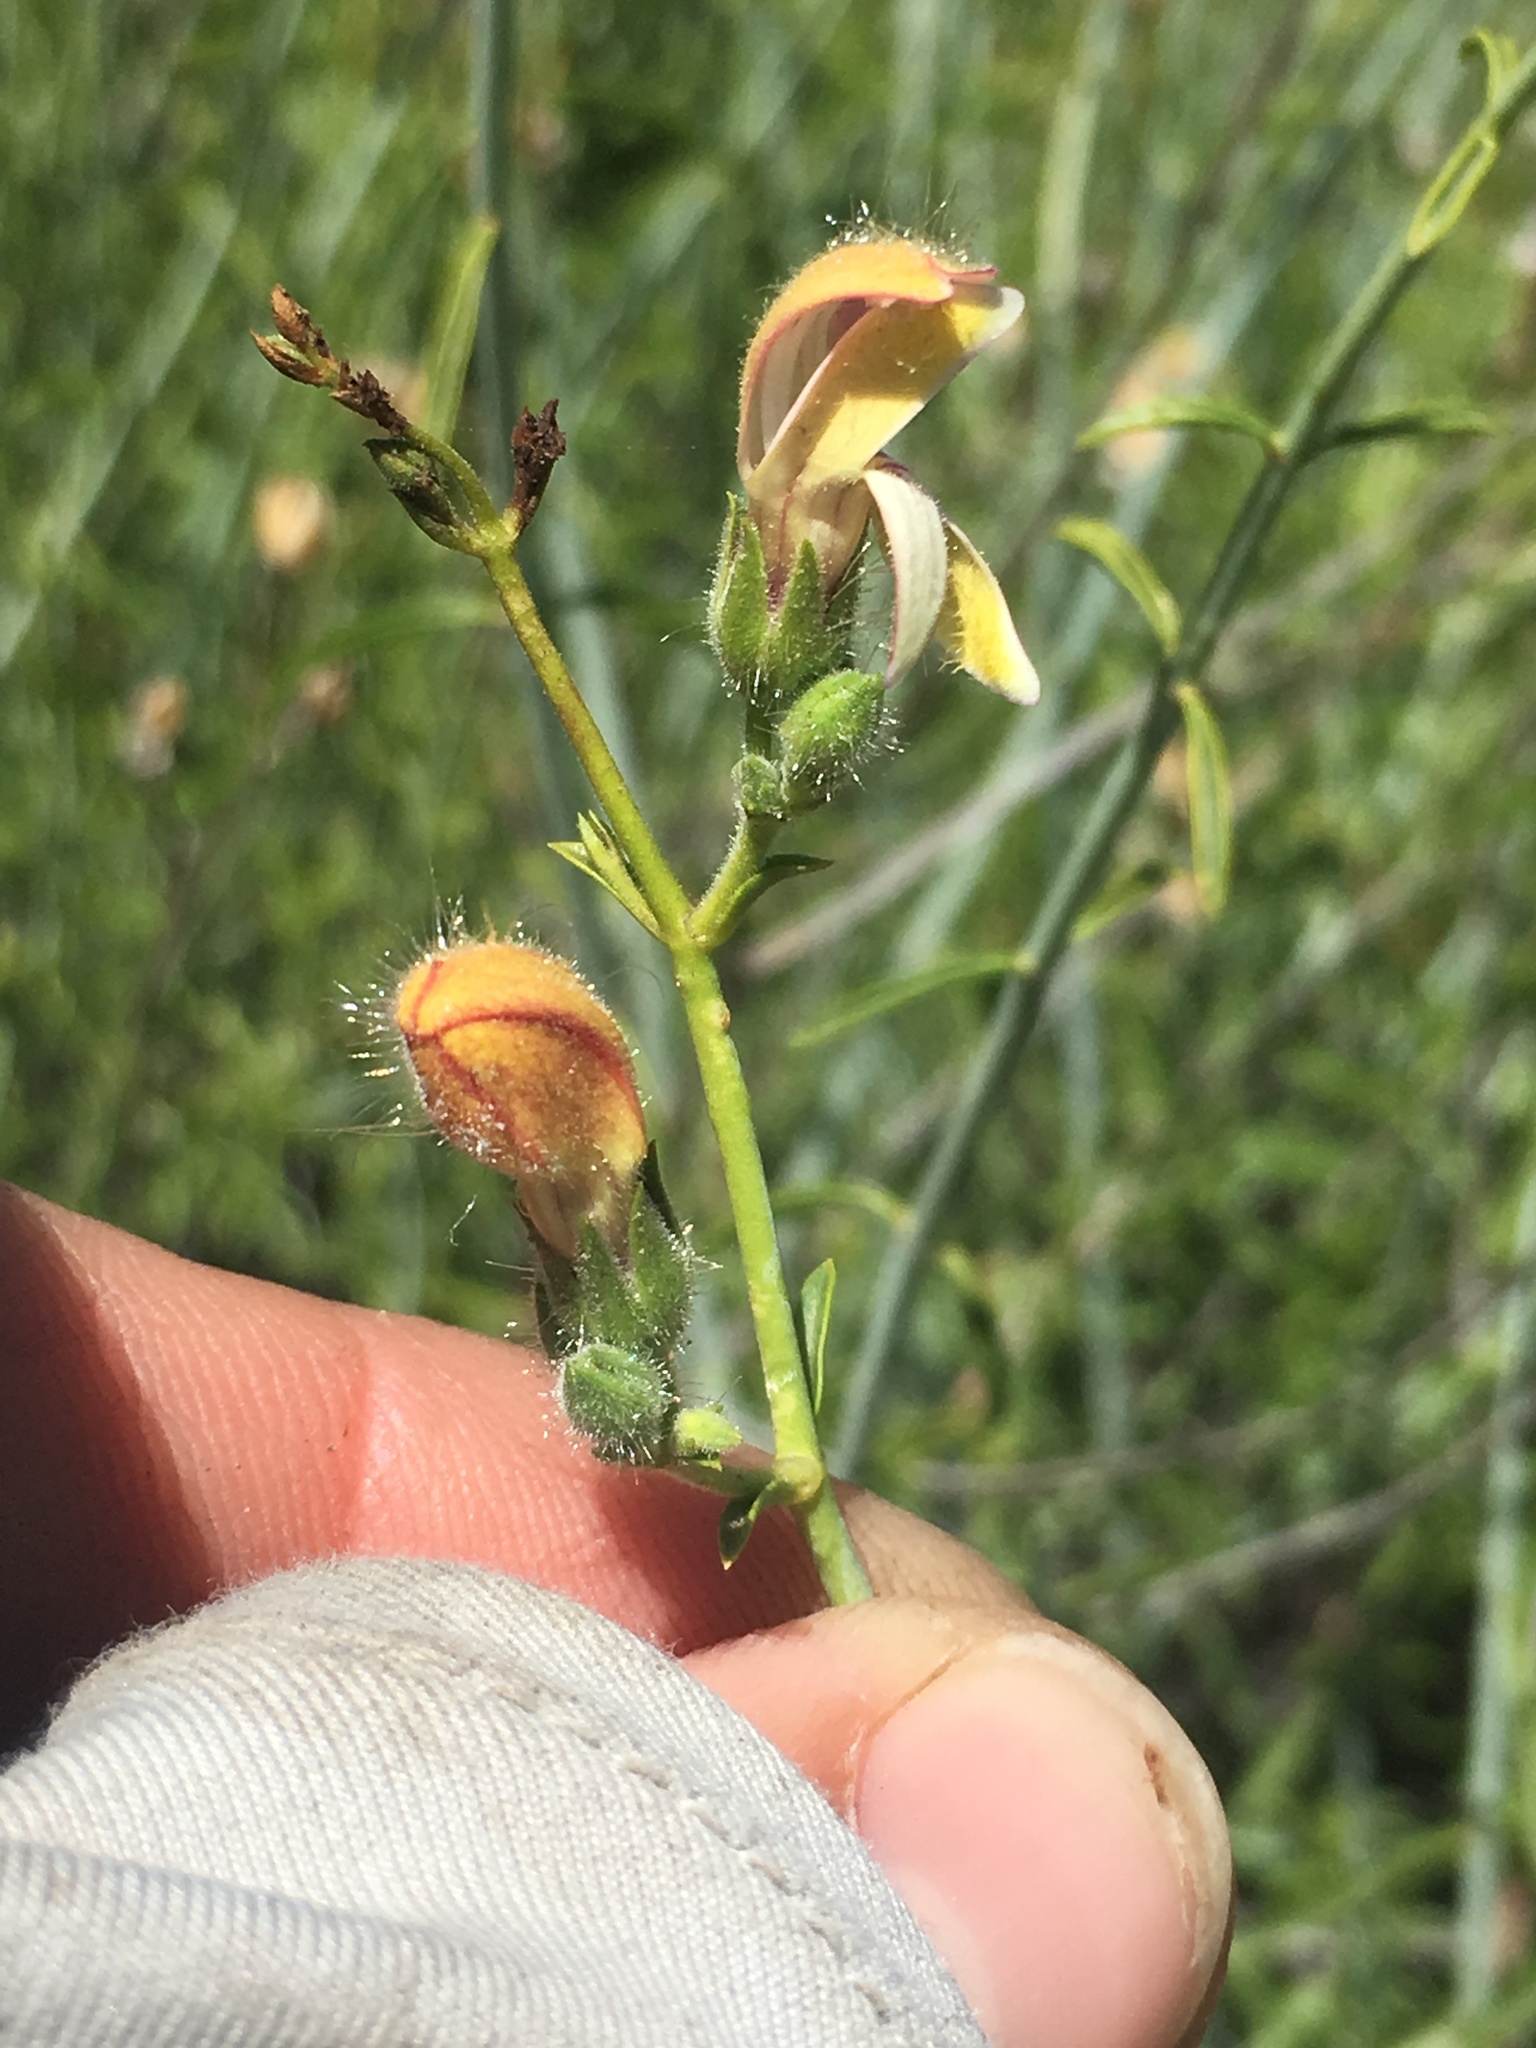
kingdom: Plantae
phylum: Tracheophyta
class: Magnoliopsida
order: Lamiales
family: Plantaginaceae
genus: Keckiella
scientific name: Keckiella breviflora
